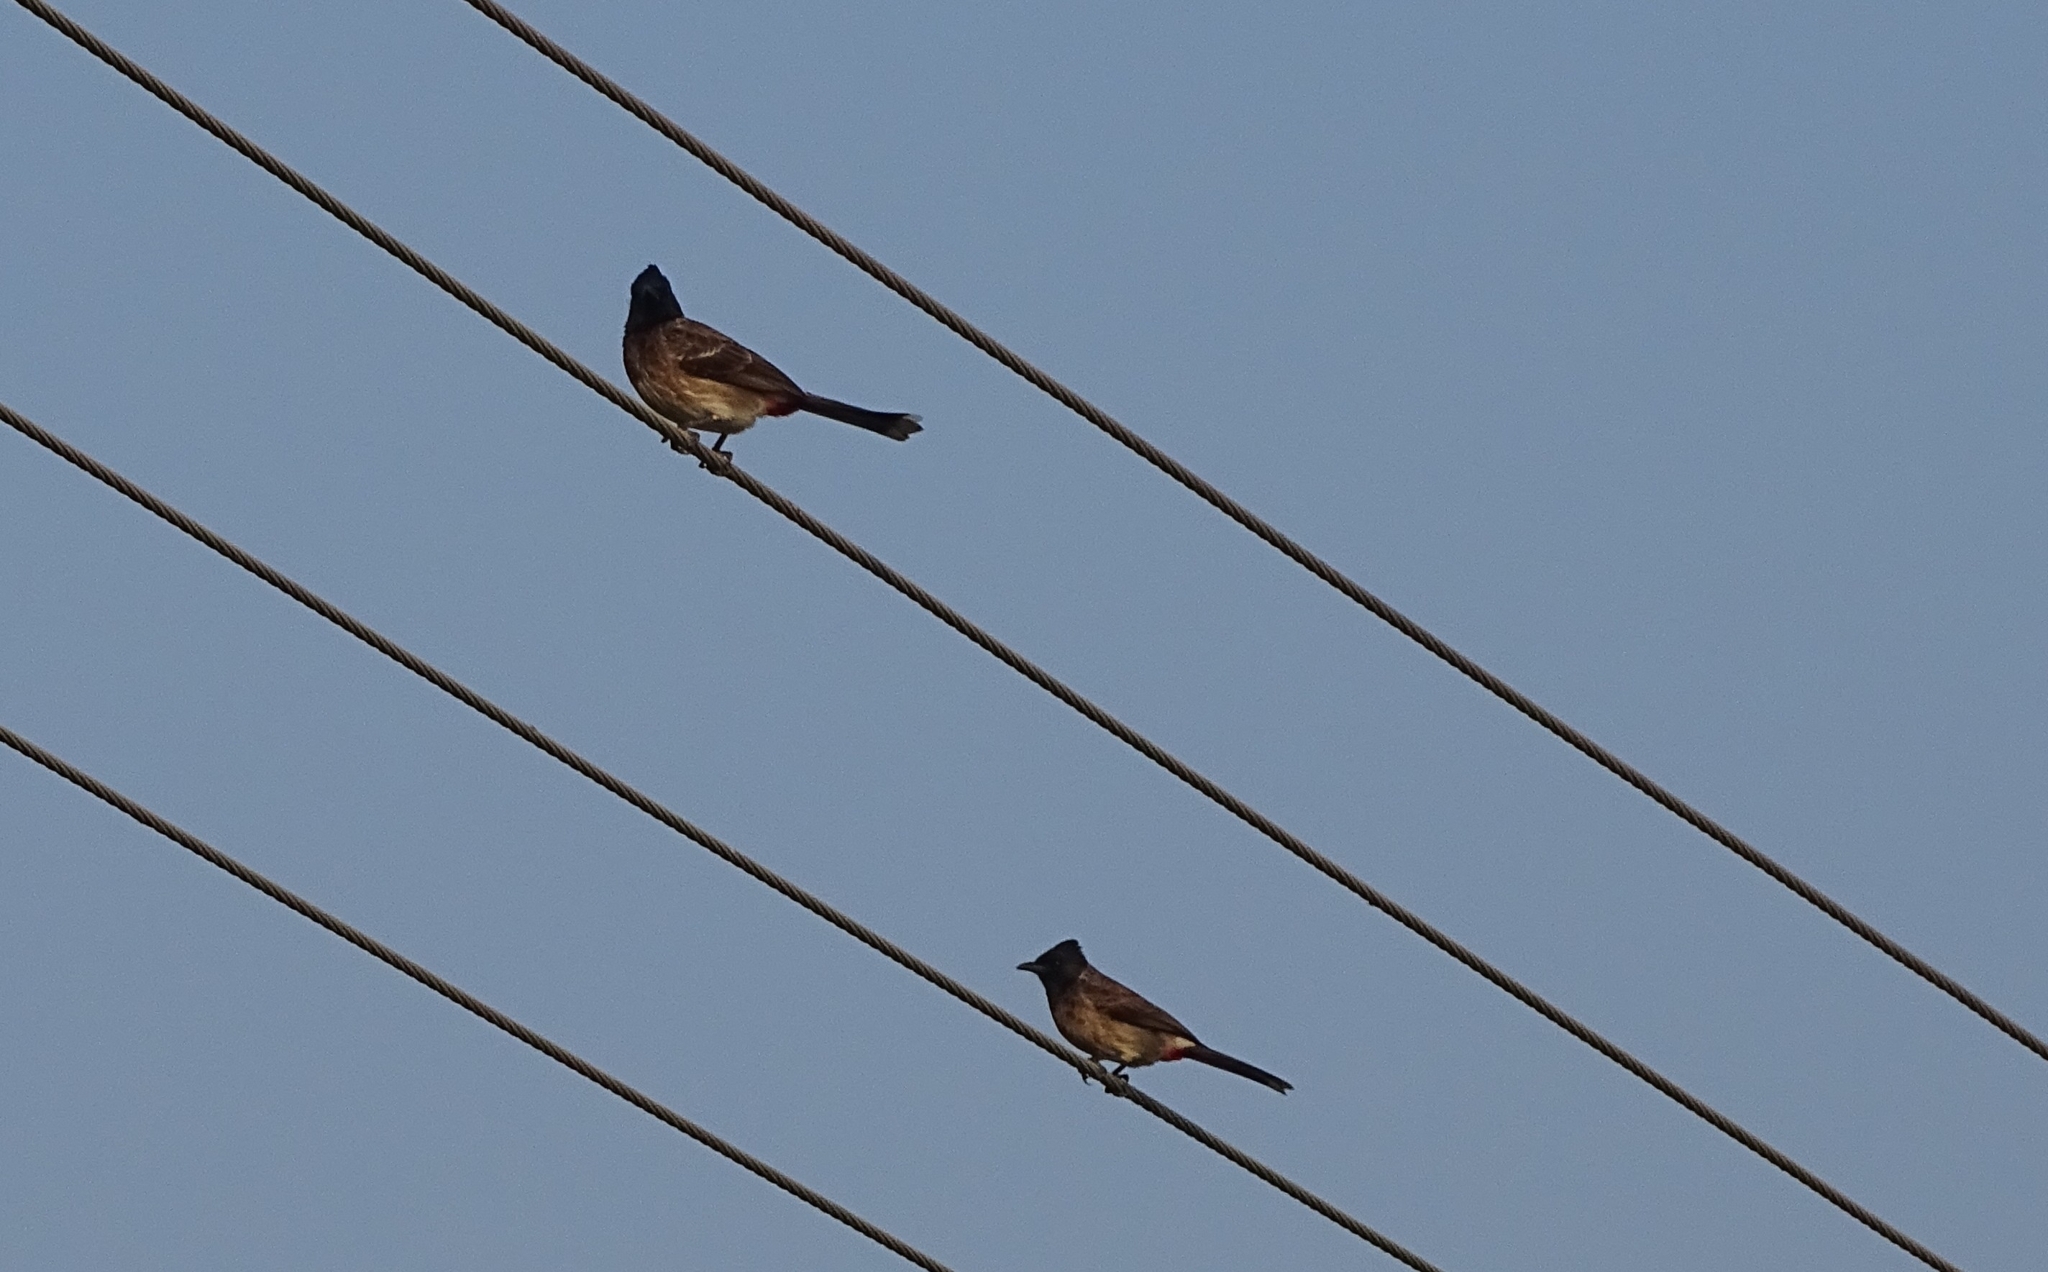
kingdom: Animalia
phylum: Chordata
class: Aves
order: Passeriformes
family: Pycnonotidae
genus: Pycnonotus
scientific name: Pycnonotus cafer
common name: Red-vented bulbul
